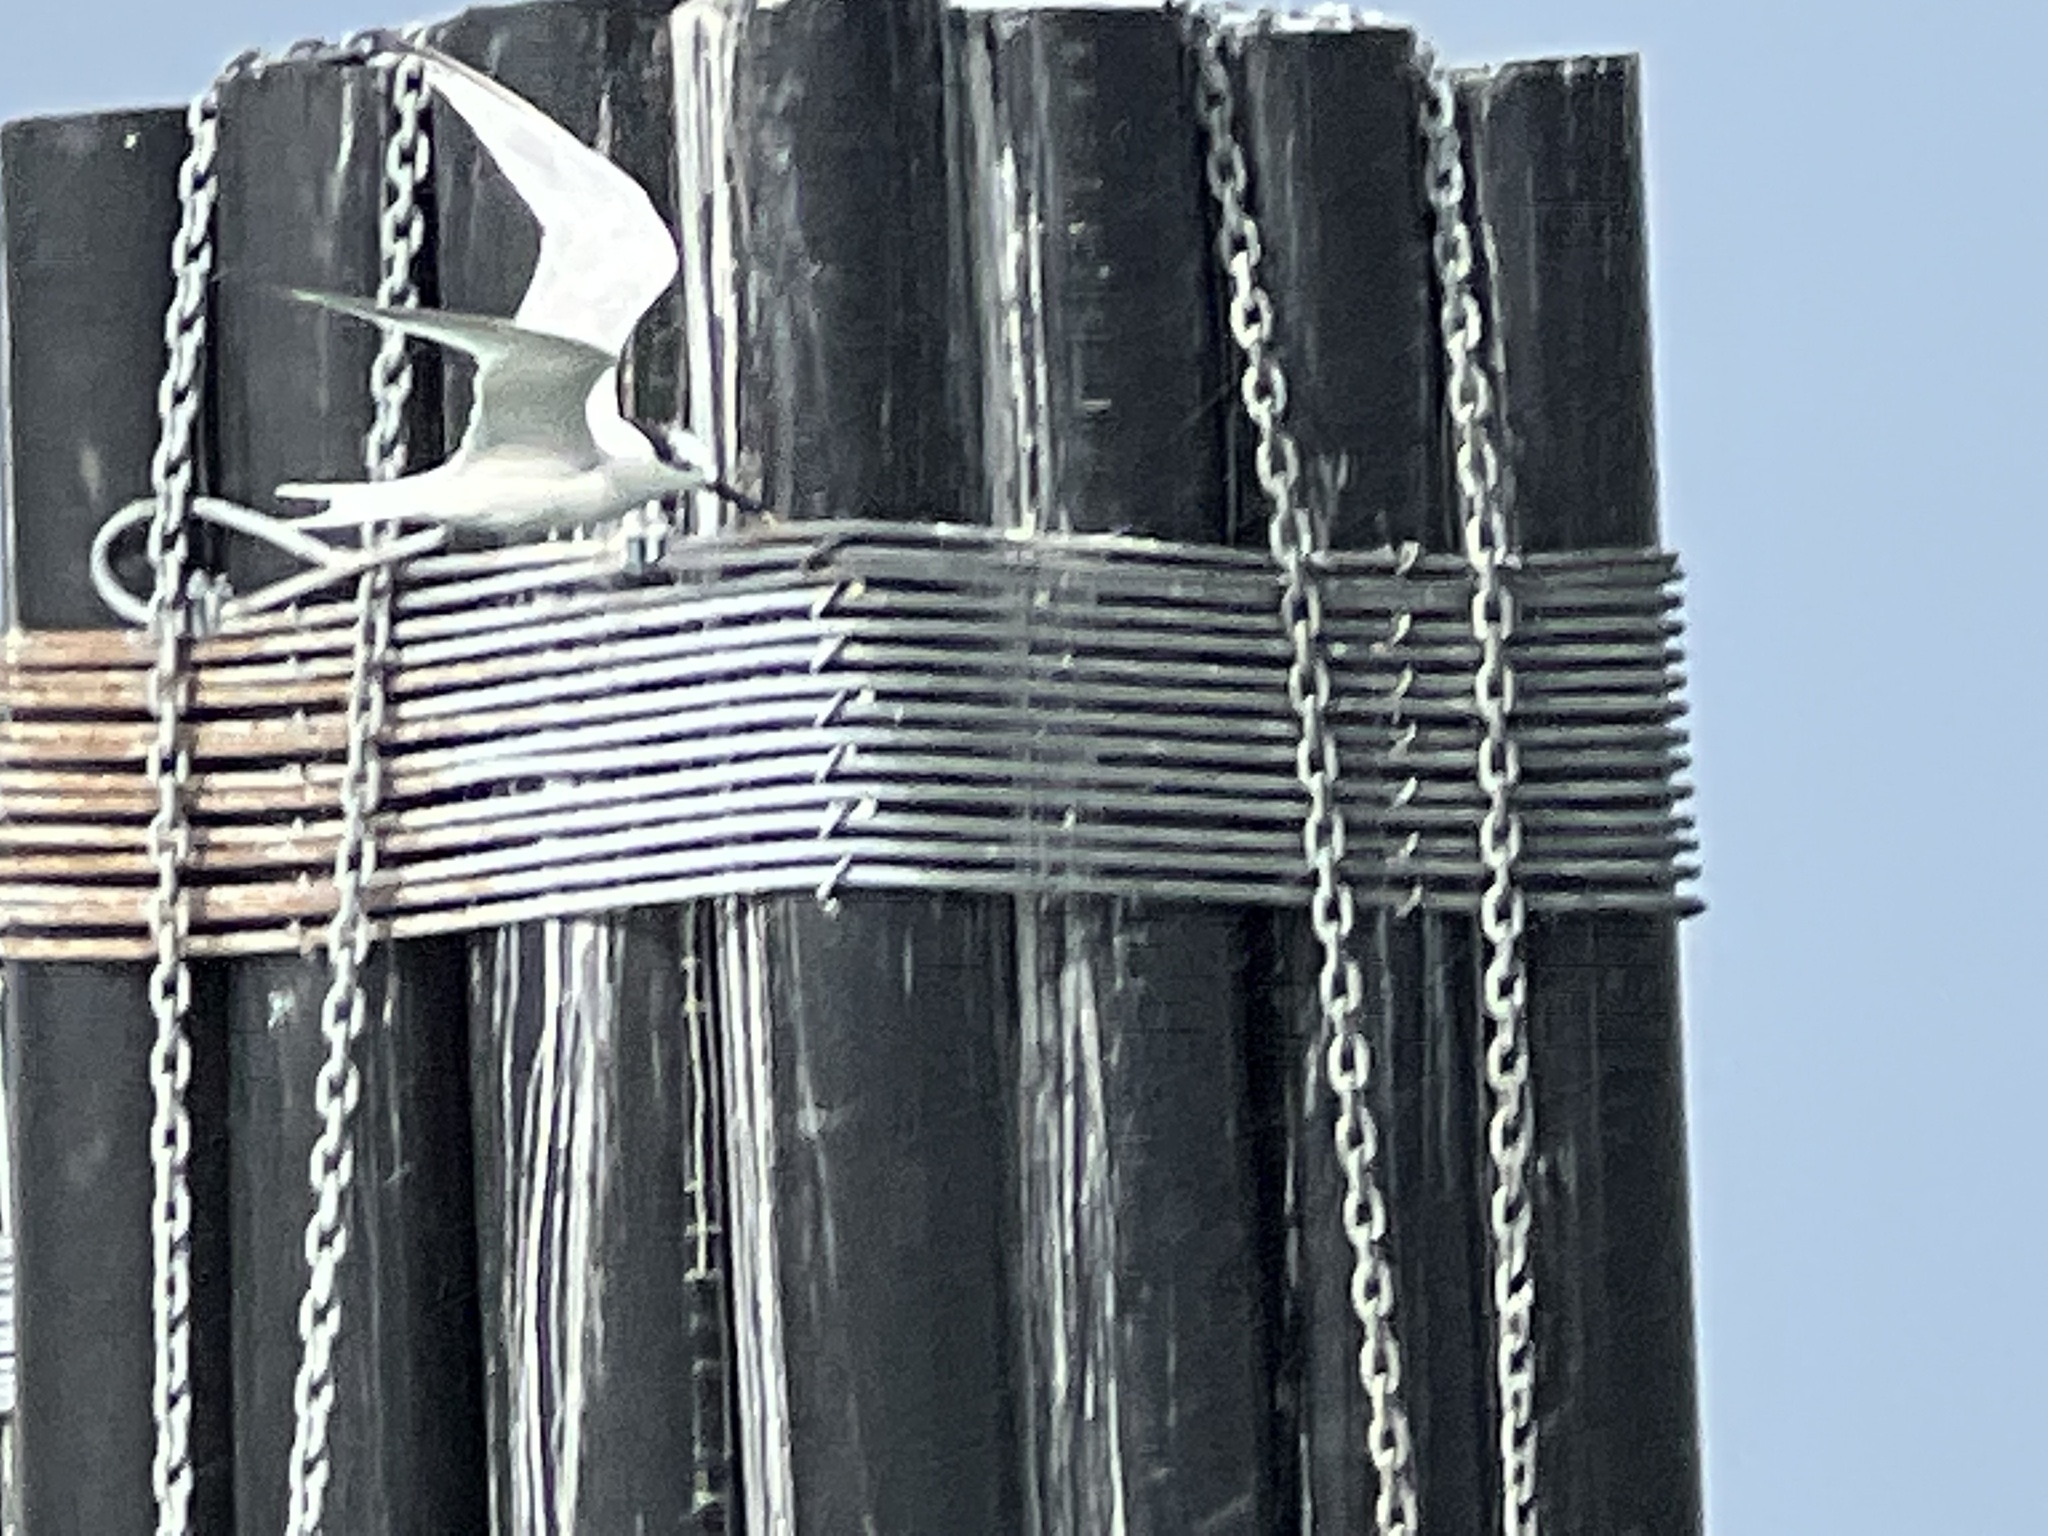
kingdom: Animalia
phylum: Chordata
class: Aves
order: Charadriiformes
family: Laridae
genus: Thalasseus
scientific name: Thalasseus sandvicensis
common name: Sandwich tern
